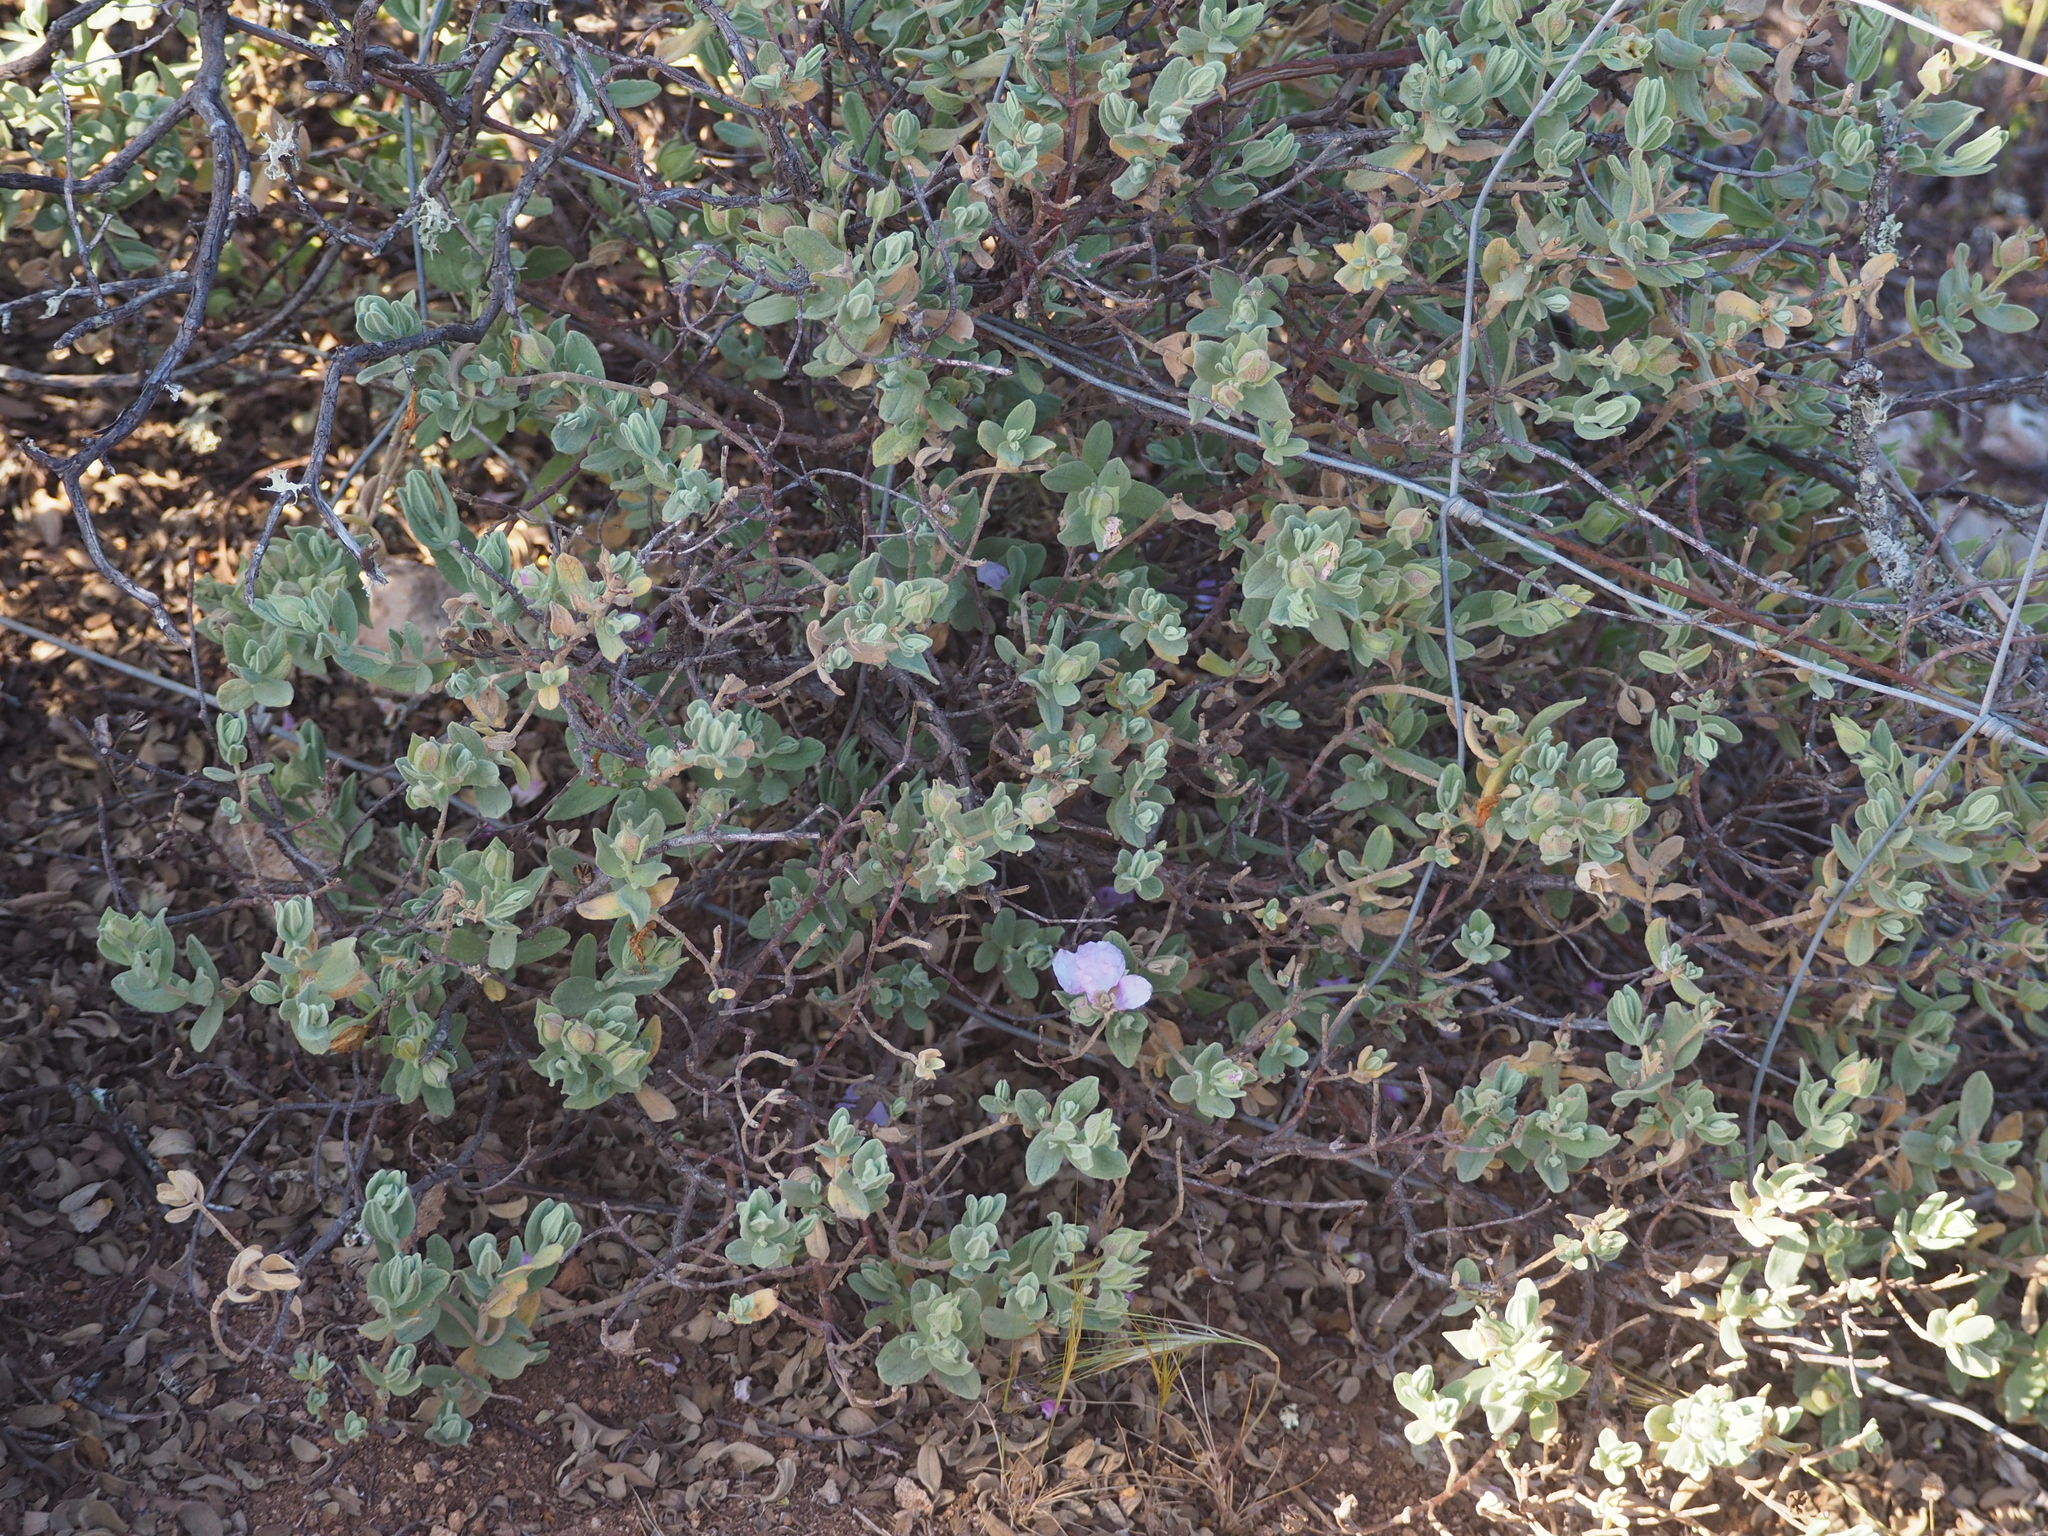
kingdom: Plantae
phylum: Tracheophyta
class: Magnoliopsida
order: Malvales
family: Cistaceae
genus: Cistus
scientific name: Cistus albidus
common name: White-leaf rock-rose
